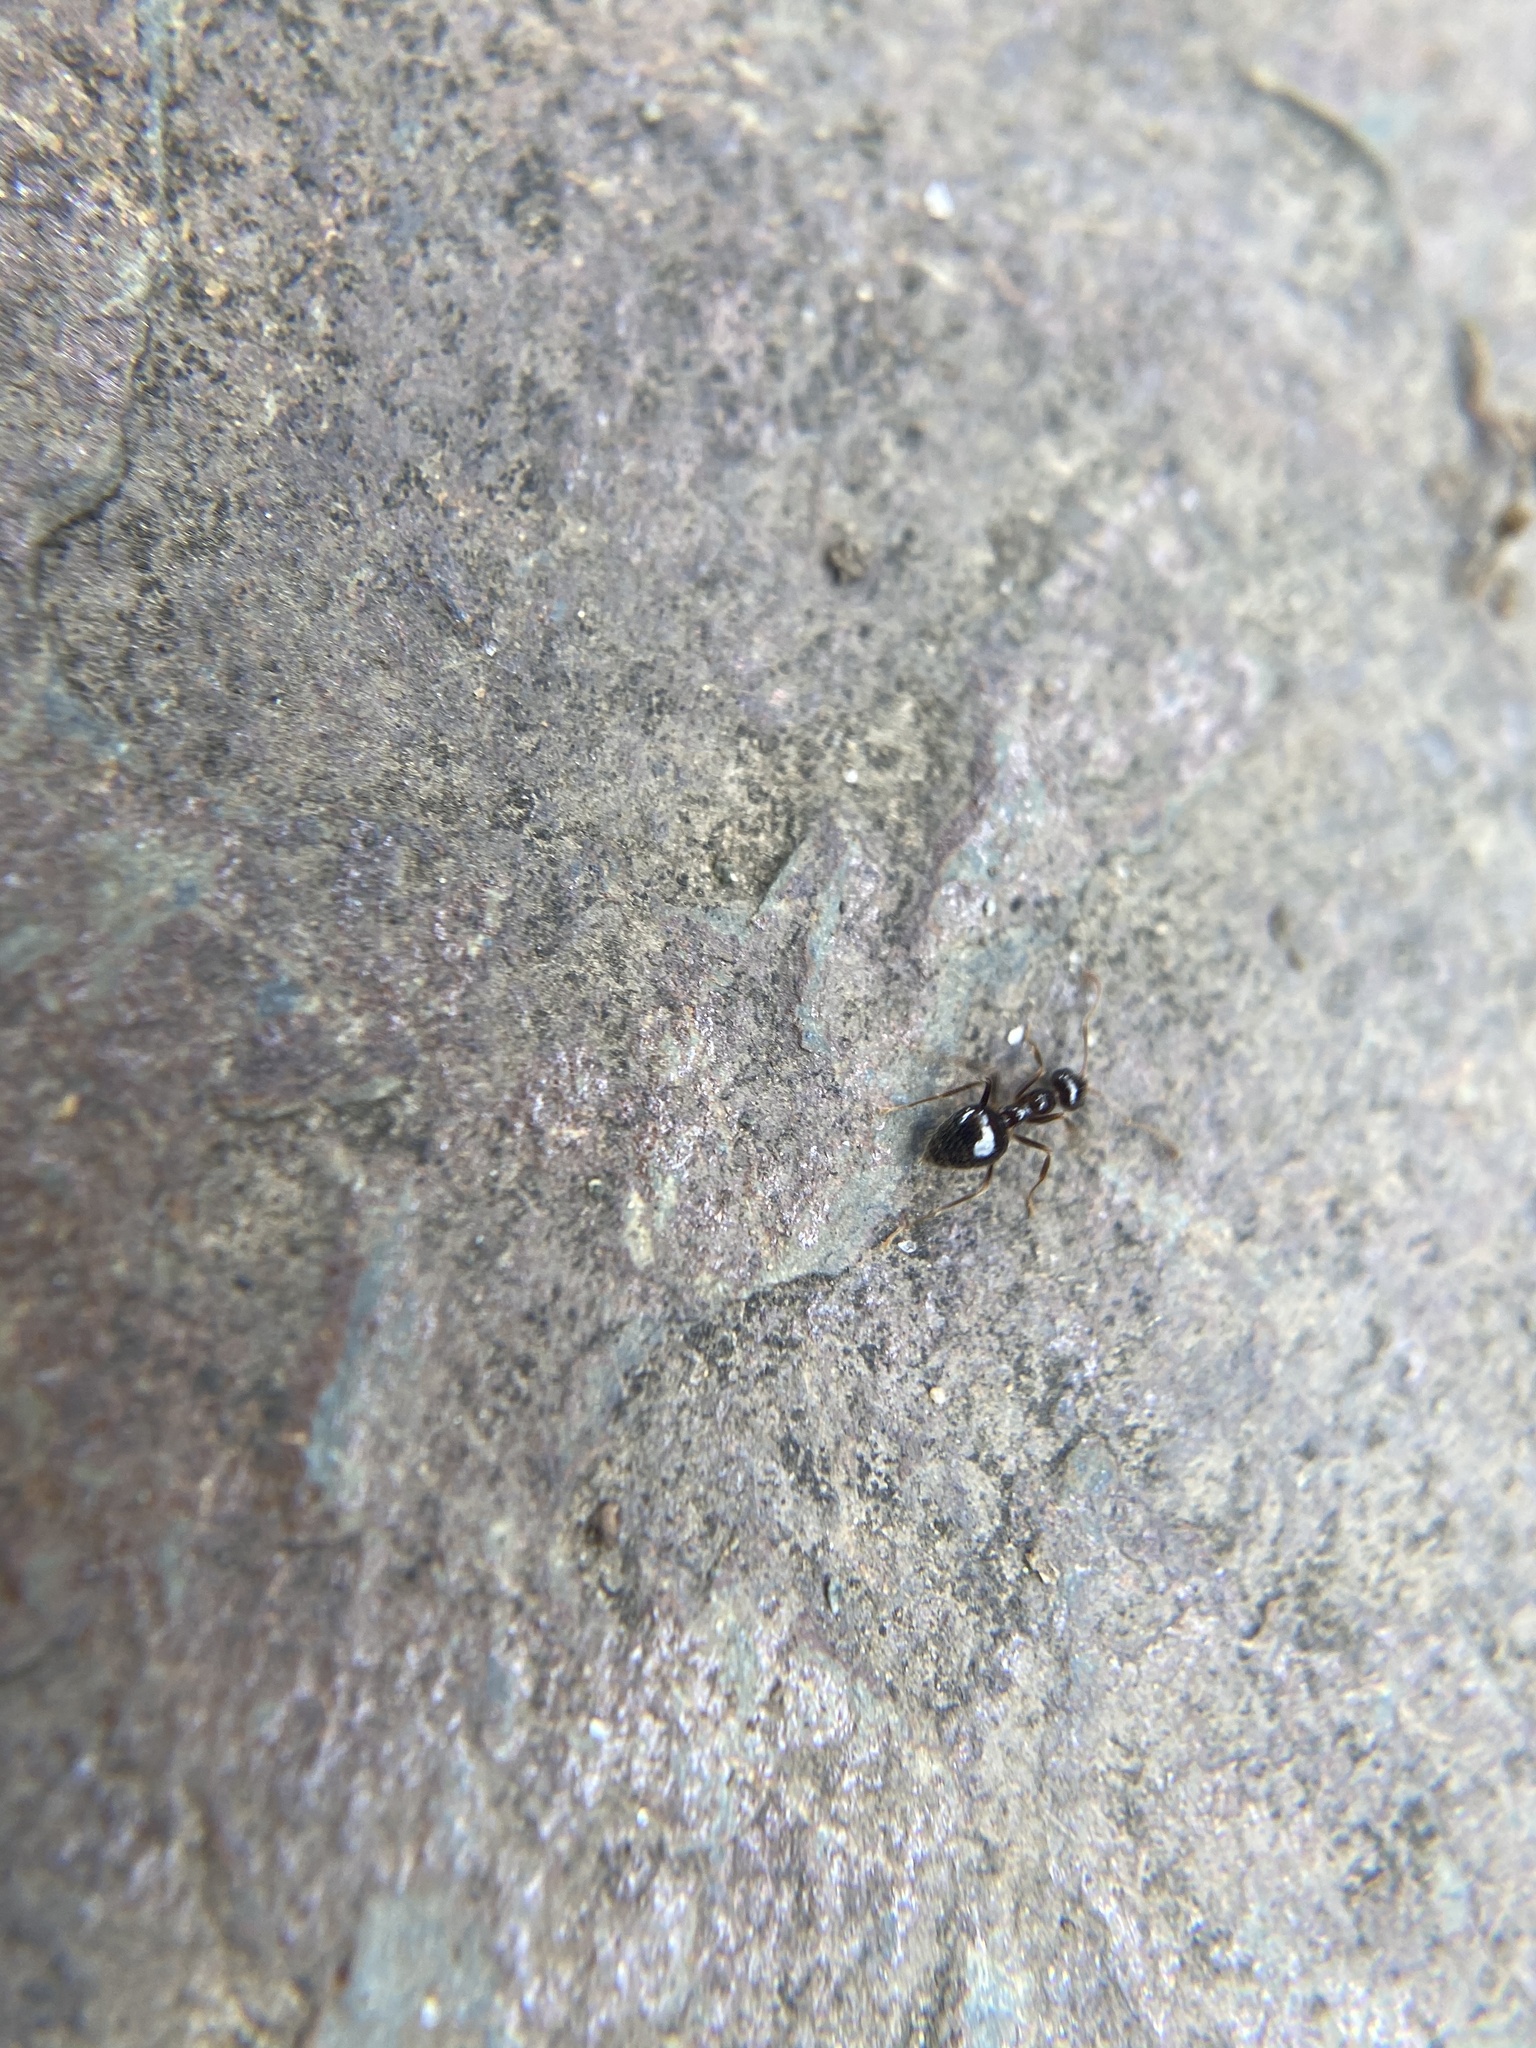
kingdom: Animalia
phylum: Arthropoda
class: Insecta
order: Hymenoptera
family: Formicidae
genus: Prenolepis
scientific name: Prenolepis imparis
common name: Small honey ant
